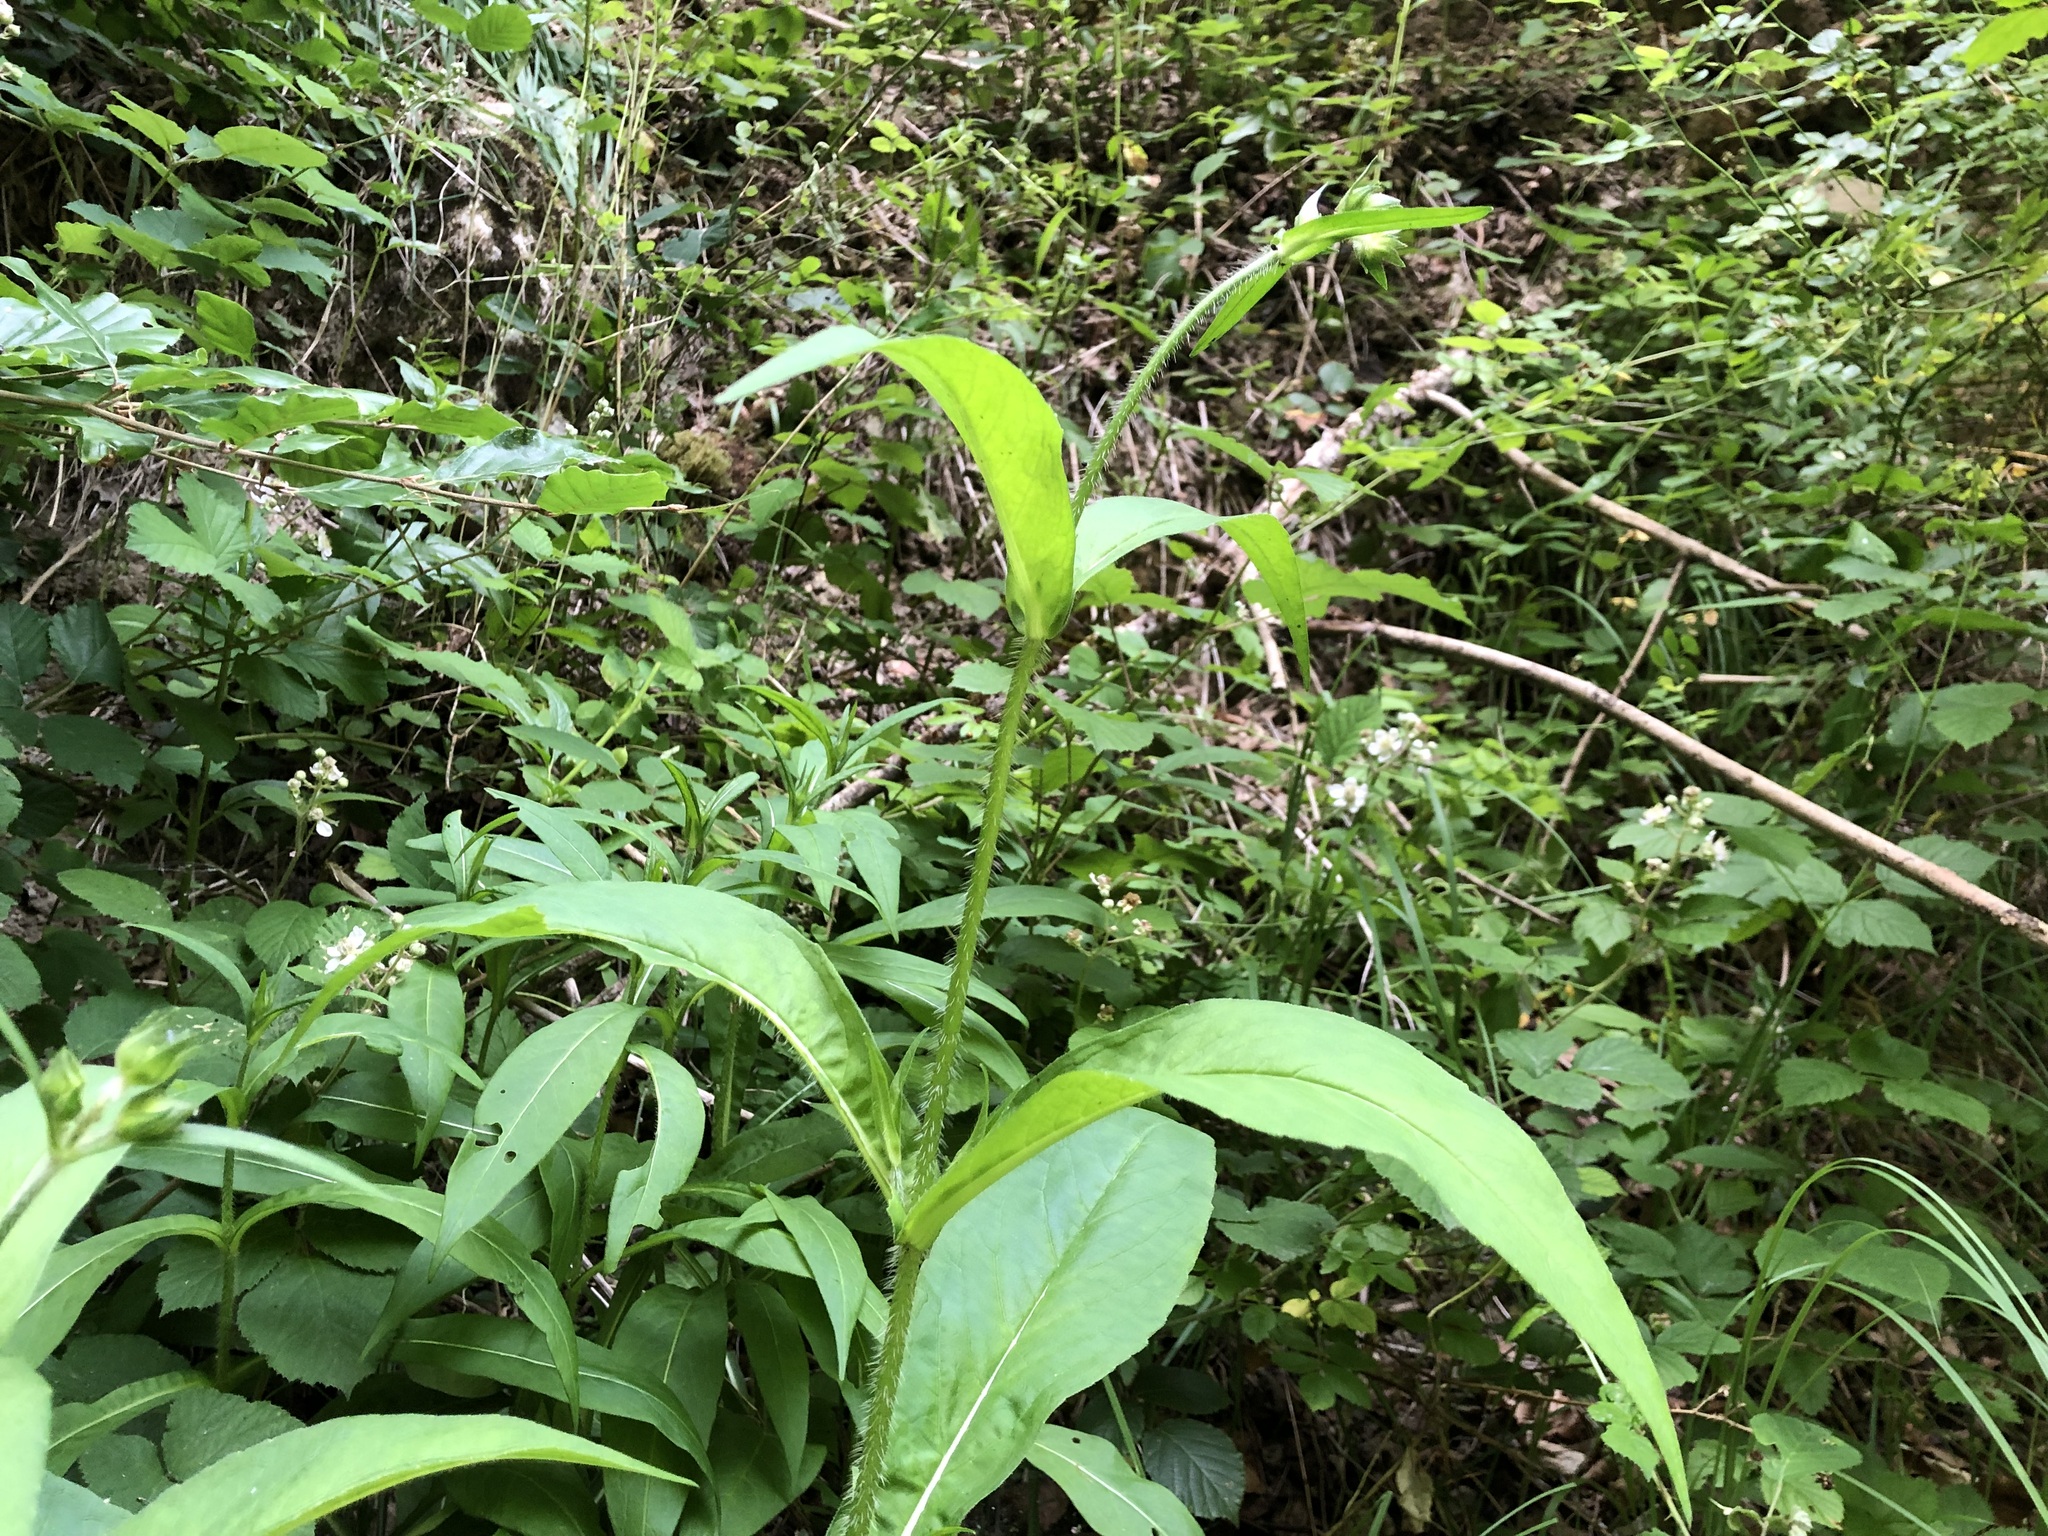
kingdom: Plantae
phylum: Tracheophyta
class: Magnoliopsida
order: Dipsacales
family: Caprifoliaceae
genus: Knautia
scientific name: Knautia dipsacifolia
